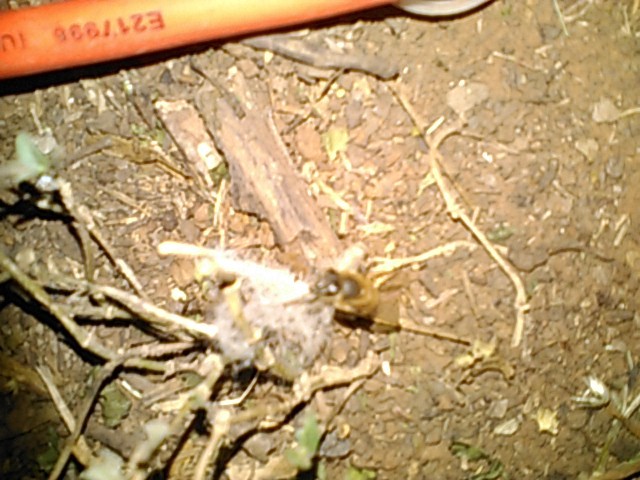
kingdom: Animalia
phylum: Arthropoda
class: Insecta
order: Hymenoptera
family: Apidae
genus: Apis
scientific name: Apis mellifera
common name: Honey bee
